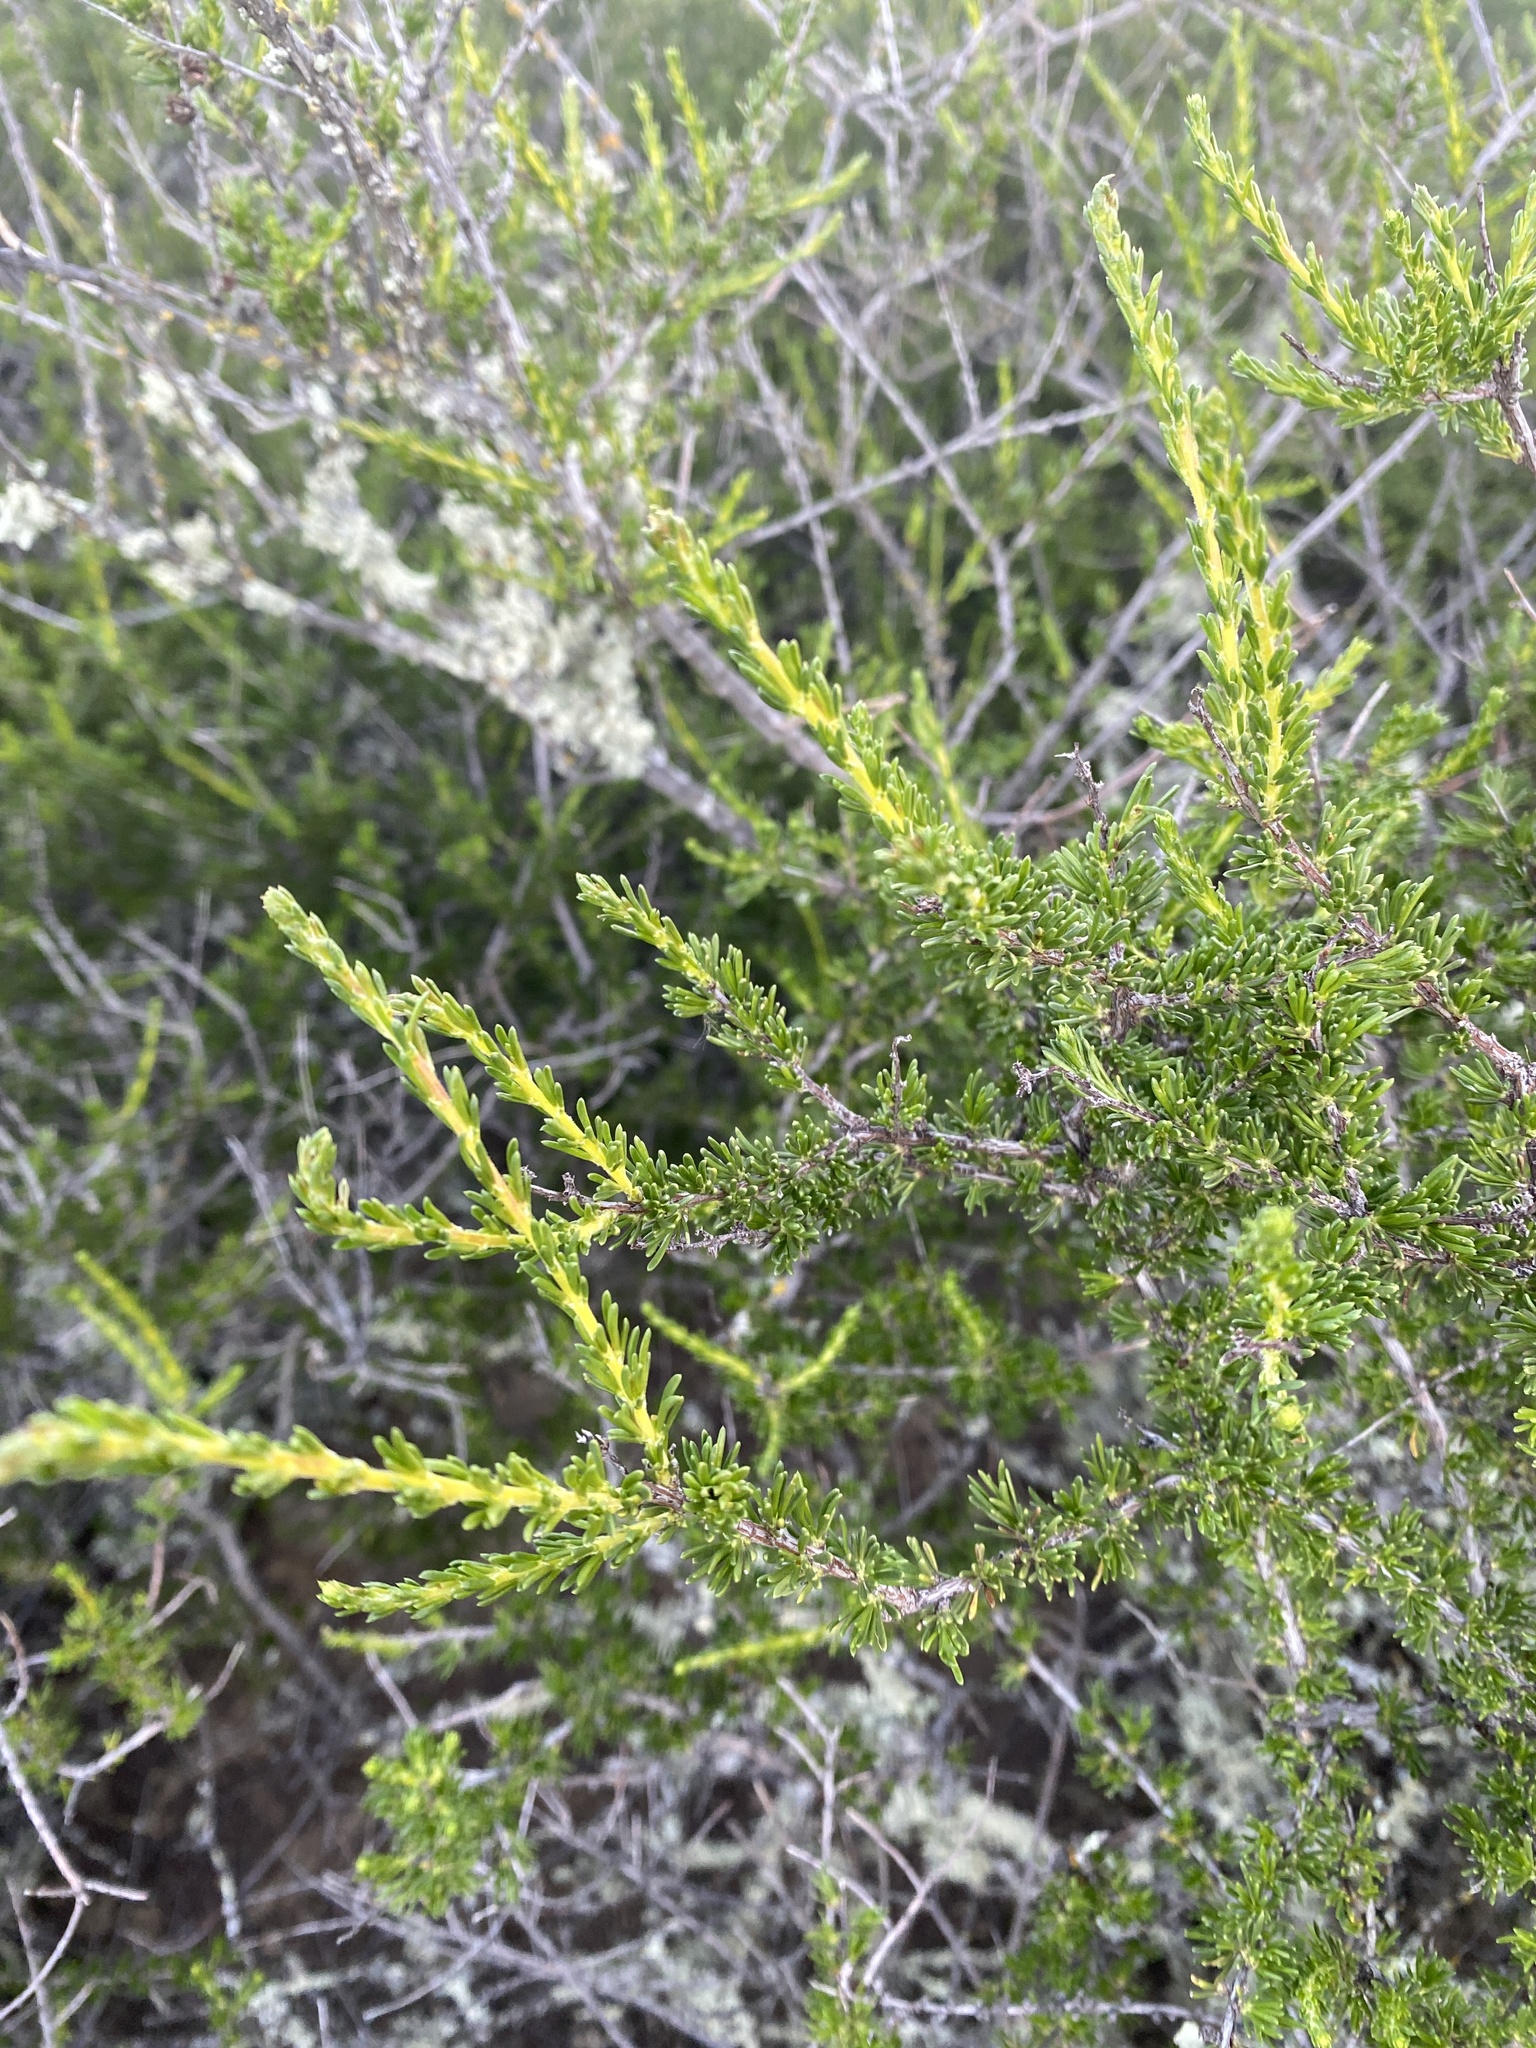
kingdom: Plantae
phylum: Tracheophyta
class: Magnoliopsida
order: Rosales
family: Rosaceae
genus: Adenostoma
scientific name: Adenostoma fasciculatum
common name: Chamise
